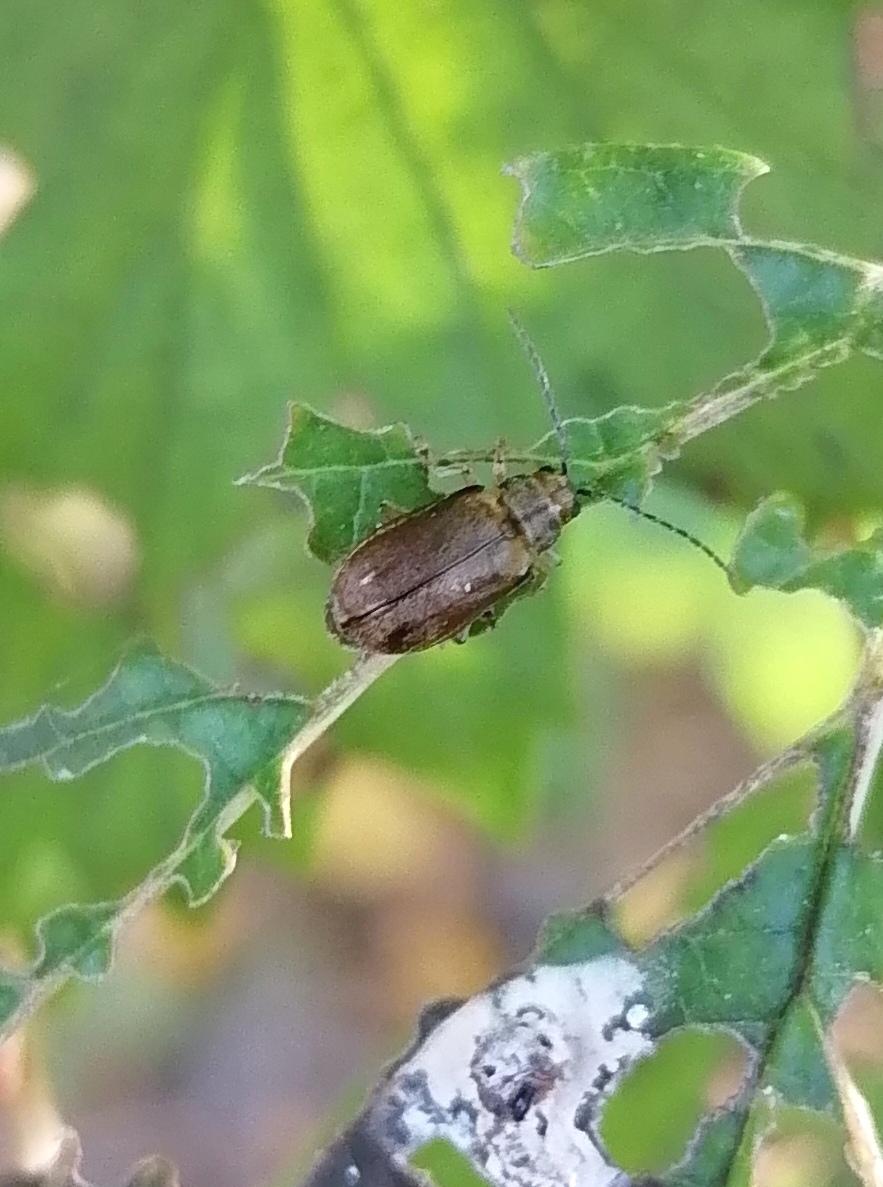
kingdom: Animalia
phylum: Arthropoda
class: Insecta
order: Coleoptera
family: Chrysomelidae
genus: Pyrrhalta
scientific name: Pyrrhalta viburni
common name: Guelder-rose leaf beetle
